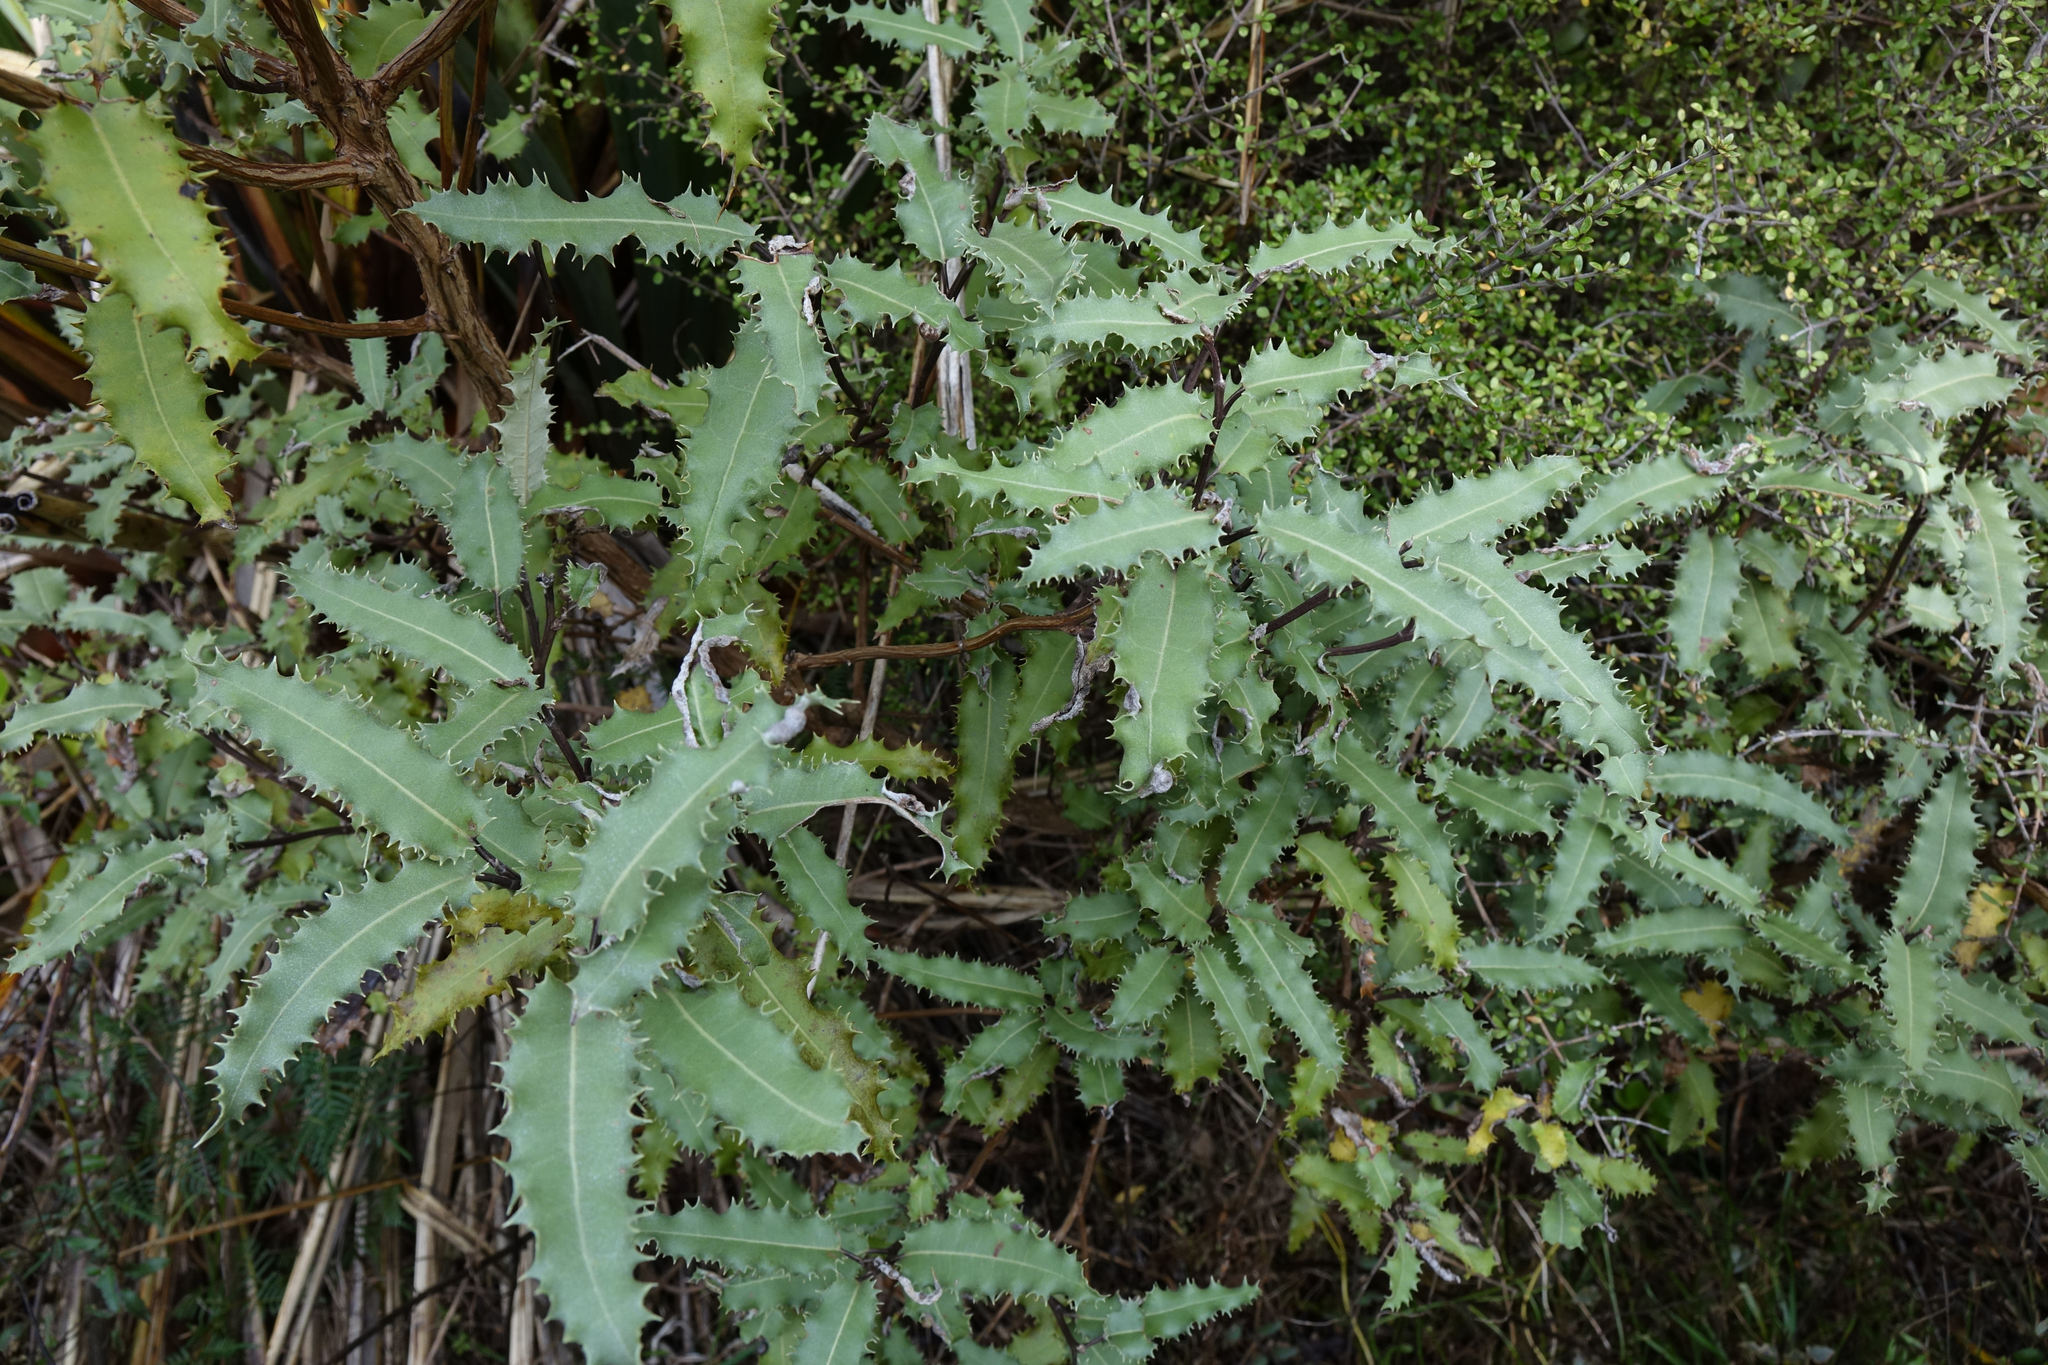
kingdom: Plantae
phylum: Tracheophyta
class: Magnoliopsida
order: Asterales
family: Asteraceae
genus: Olearia
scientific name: Olearia ilicifolia
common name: Maori-holly
